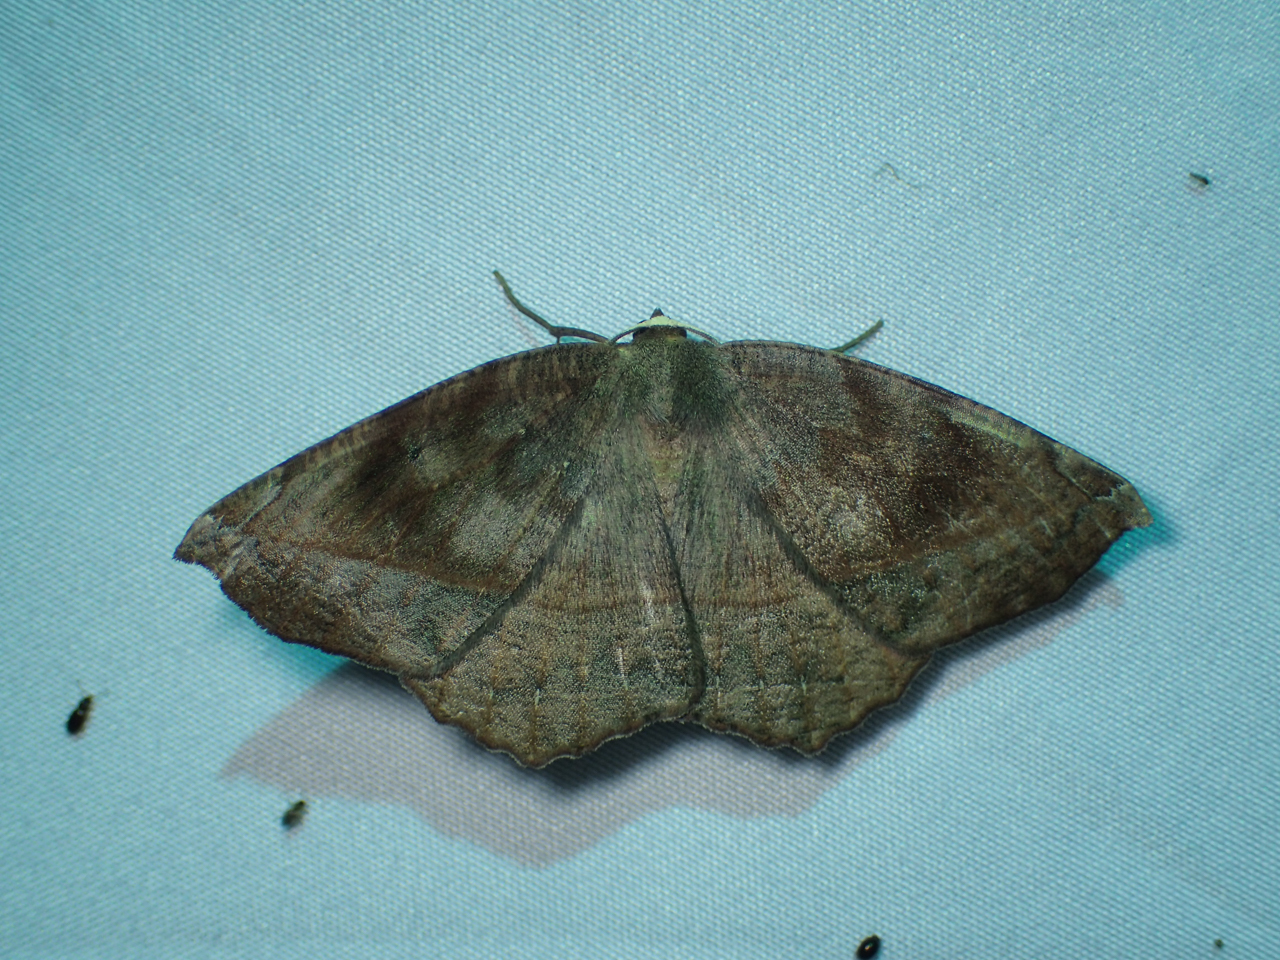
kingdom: Animalia
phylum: Arthropoda
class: Insecta
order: Lepidoptera
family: Geometridae
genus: Eutrapela
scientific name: Eutrapela clemataria
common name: Curved-toothed geometer
